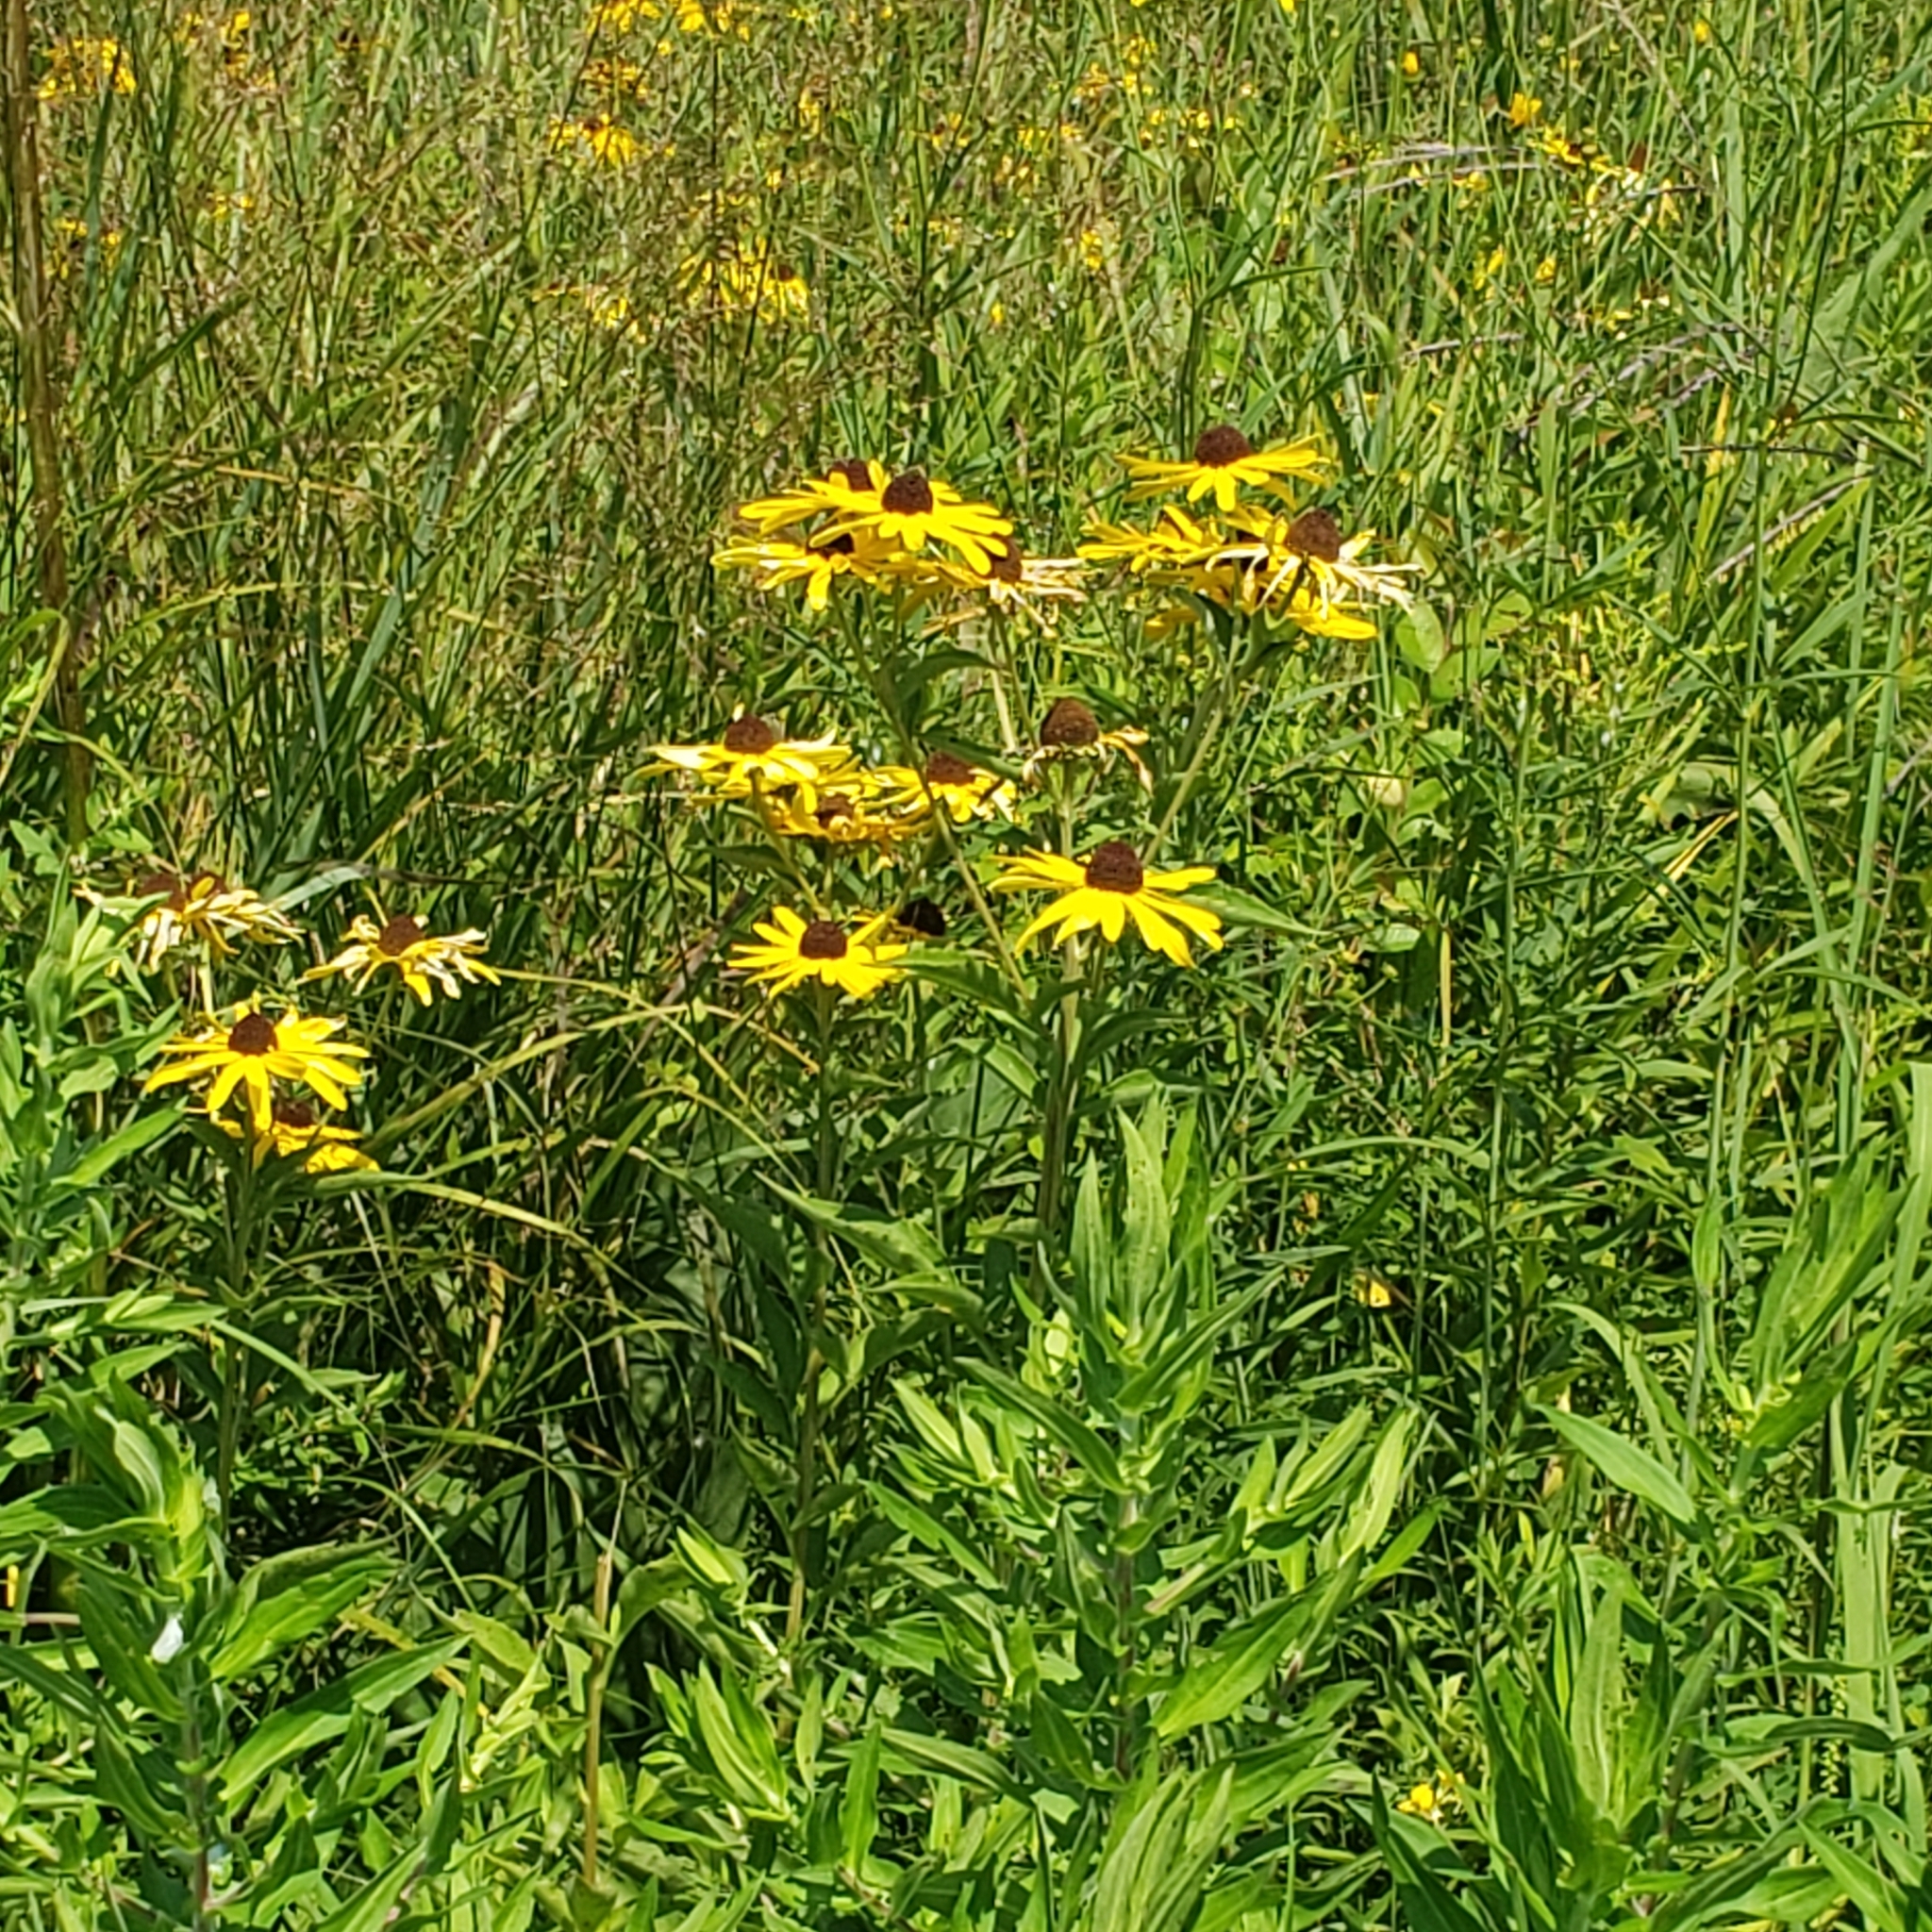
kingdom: Plantae
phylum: Tracheophyta
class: Magnoliopsida
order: Asterales
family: Asteraceae
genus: Rudbeckia
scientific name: Rudbeckia subtomentosa
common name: Sweet coneflower
